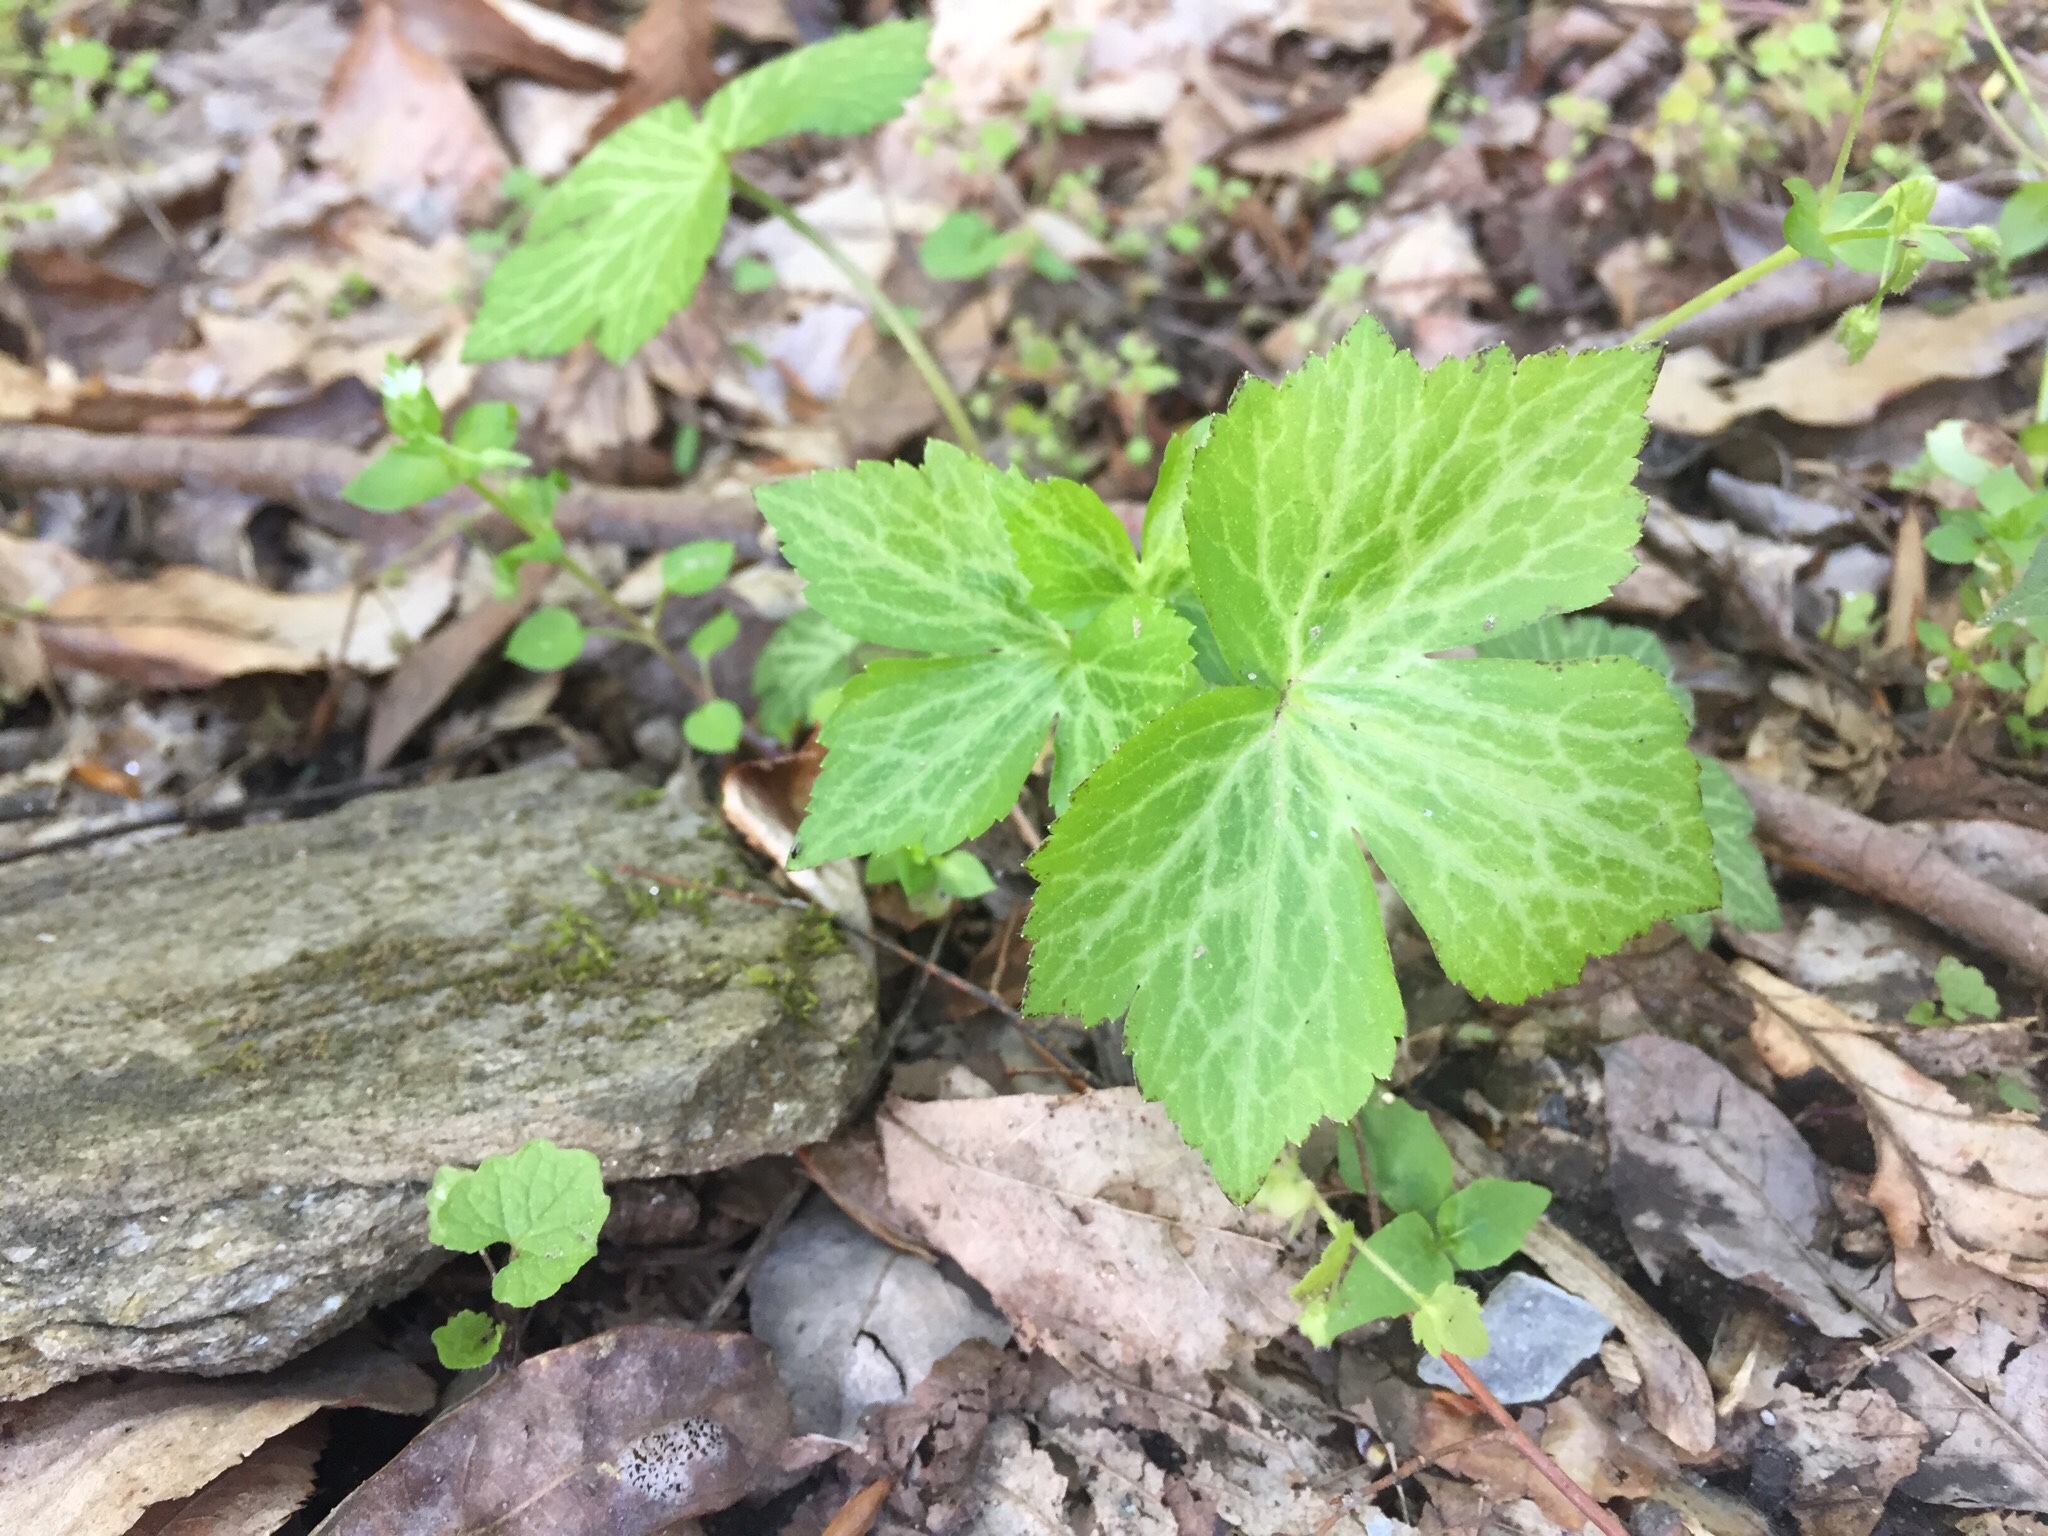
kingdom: Plantae
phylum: Tracheophyta
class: Magnoliopsida
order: Ranunculales
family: Ranunculaceae
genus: Ranunculus
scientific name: Ranunculus recurvatus
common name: Blisterwort
